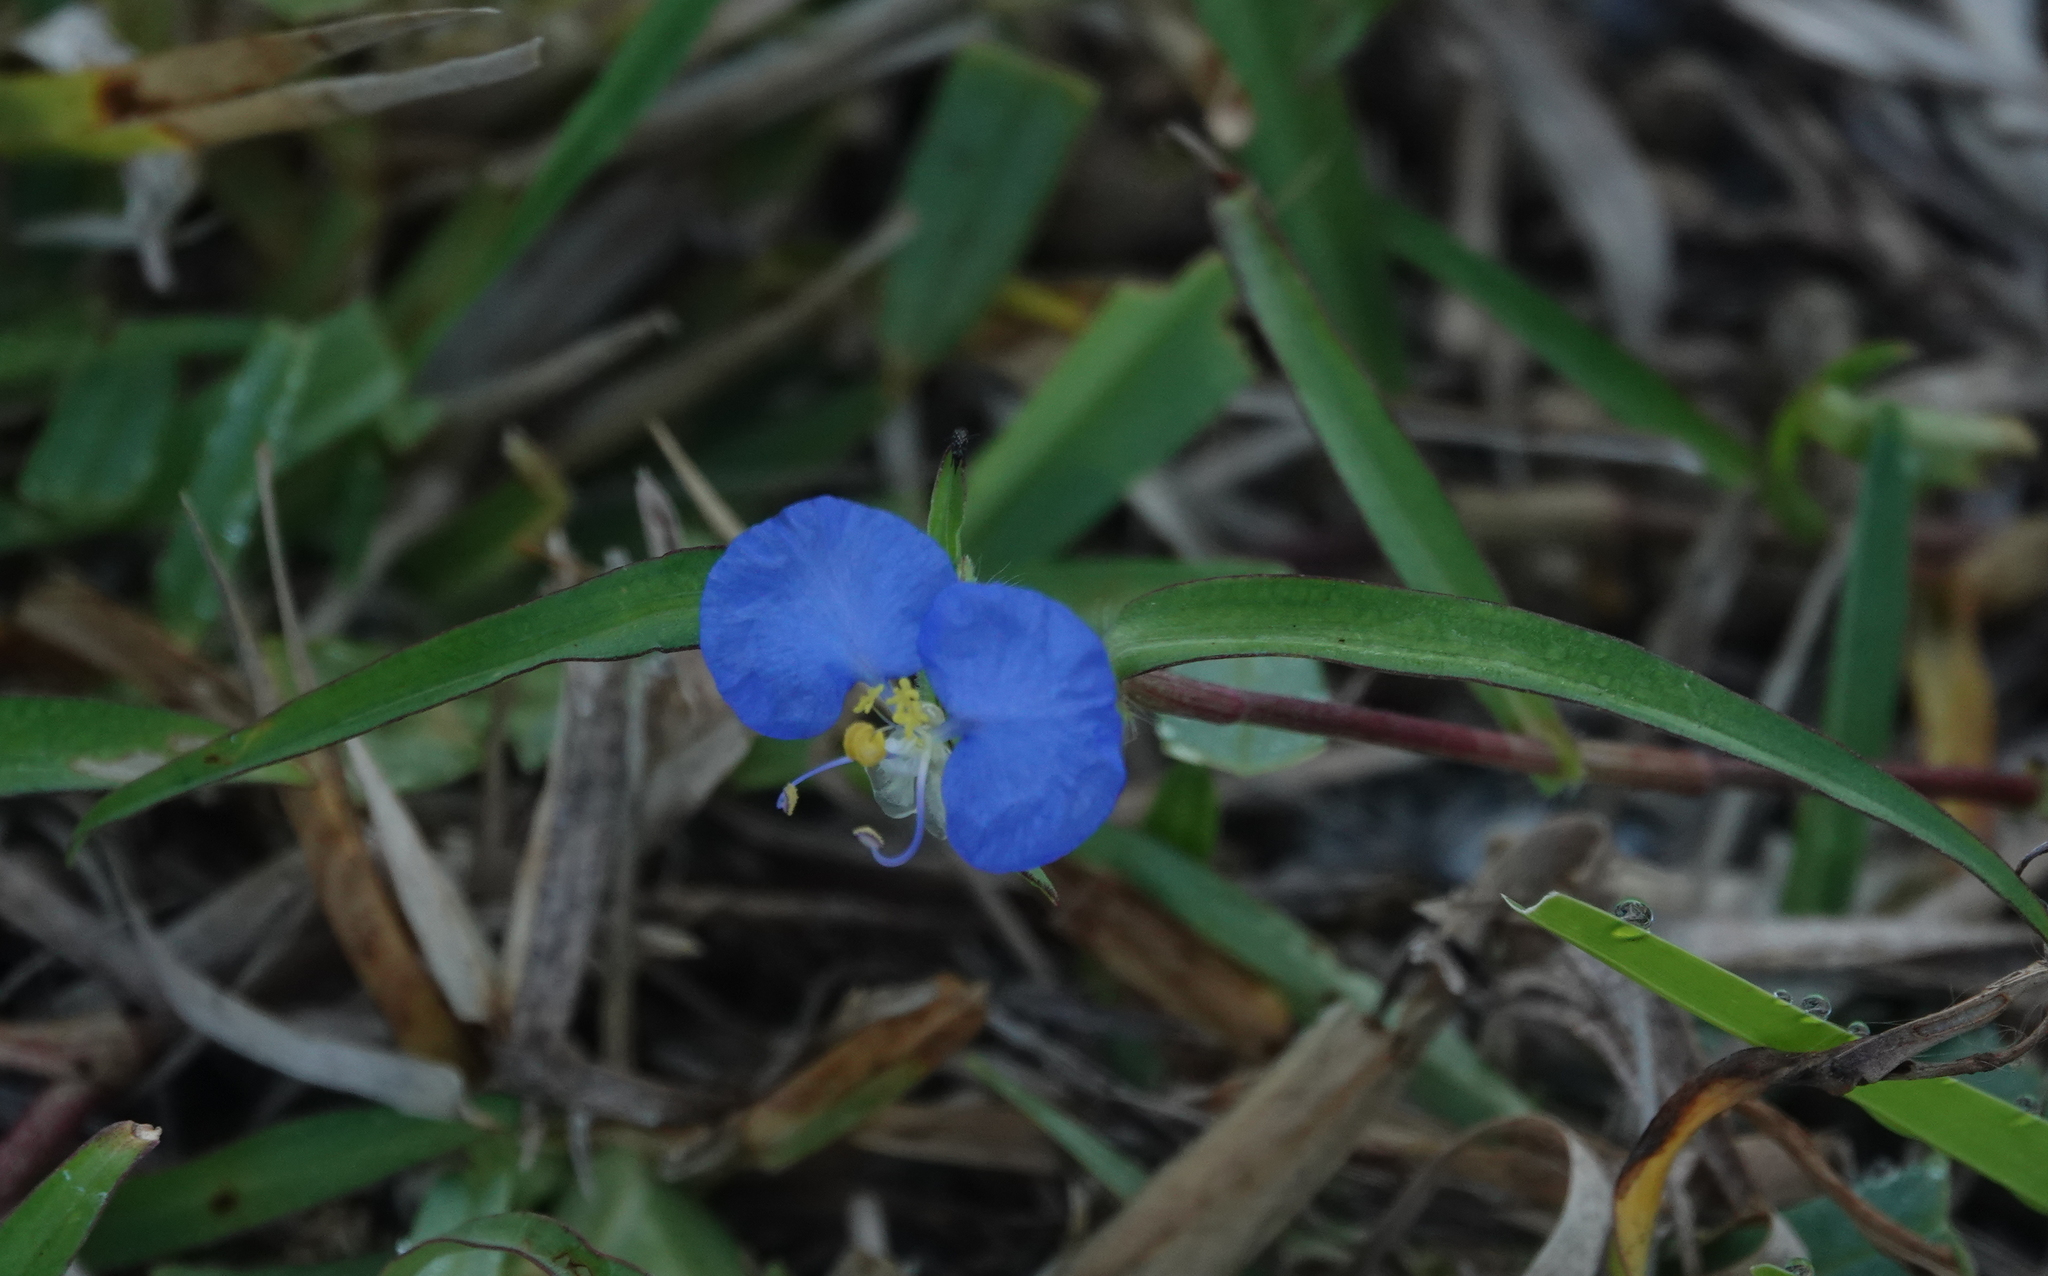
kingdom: Plantae
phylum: Tracheophyta
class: Liliopsida
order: Commelinales
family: Commelinaceae
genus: Commelina
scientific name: Commelina erecta
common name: Blousel blommetjie
